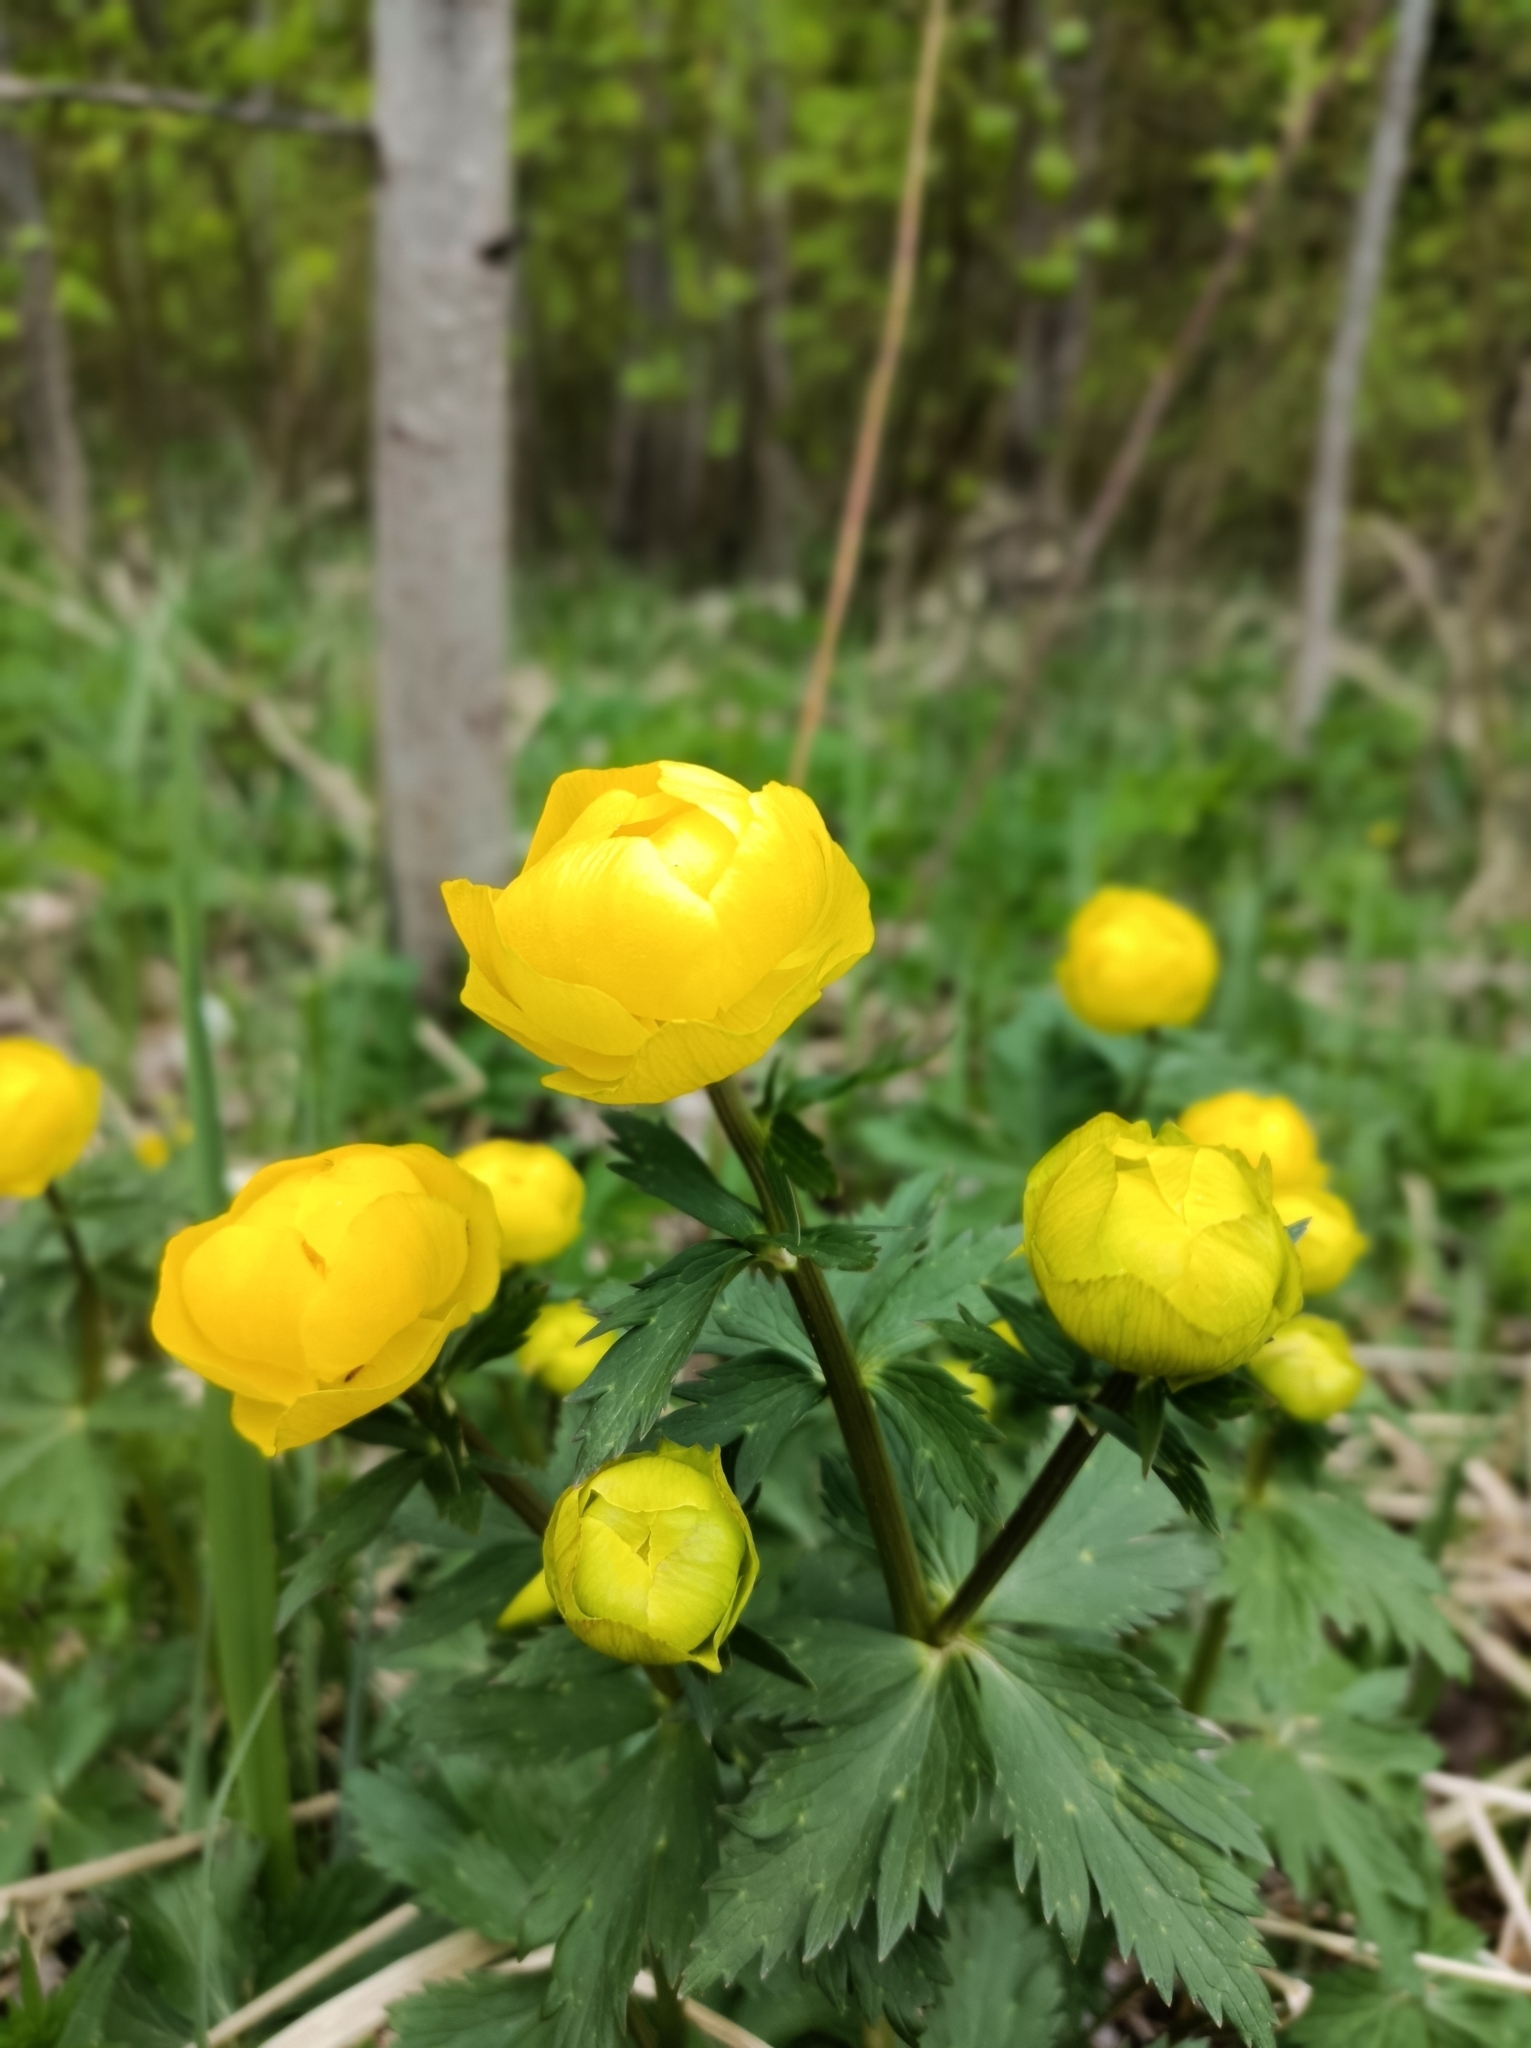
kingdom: Plantae
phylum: Tracheophyta
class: Magnoliopsida
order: Ranunculales
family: Ranunculaceae
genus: Trollius
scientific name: Trollius europaeus
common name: European globeflower
